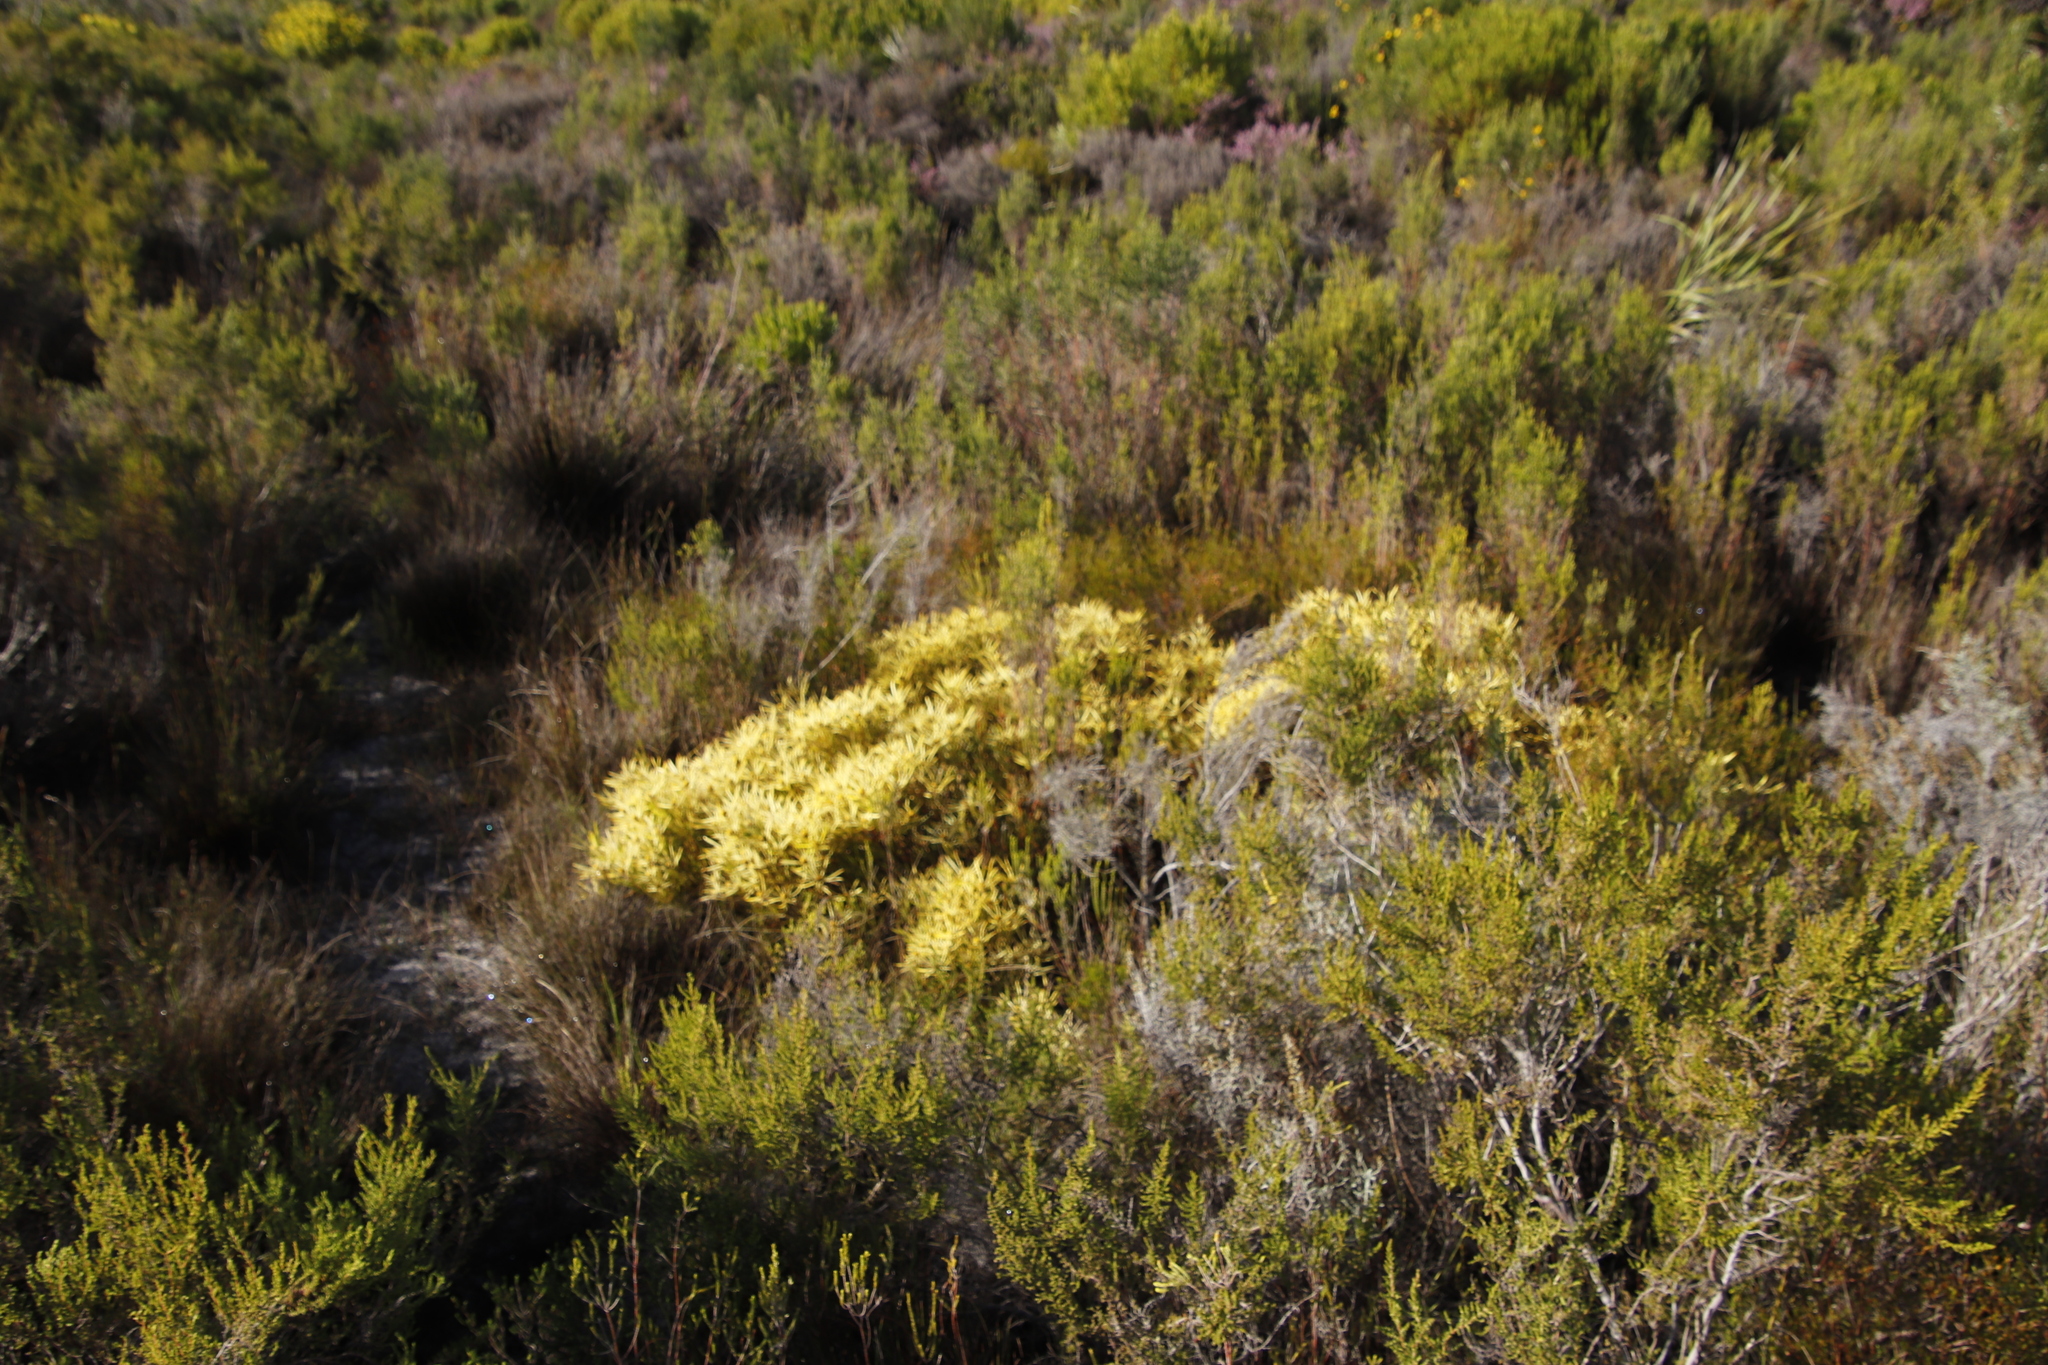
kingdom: Plantae
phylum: Tracheophyta
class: Magnoliopsida
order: Proteales
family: Proteaceae
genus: Leucadendron
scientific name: Leucadendron salignum
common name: Common sunshine conebush
